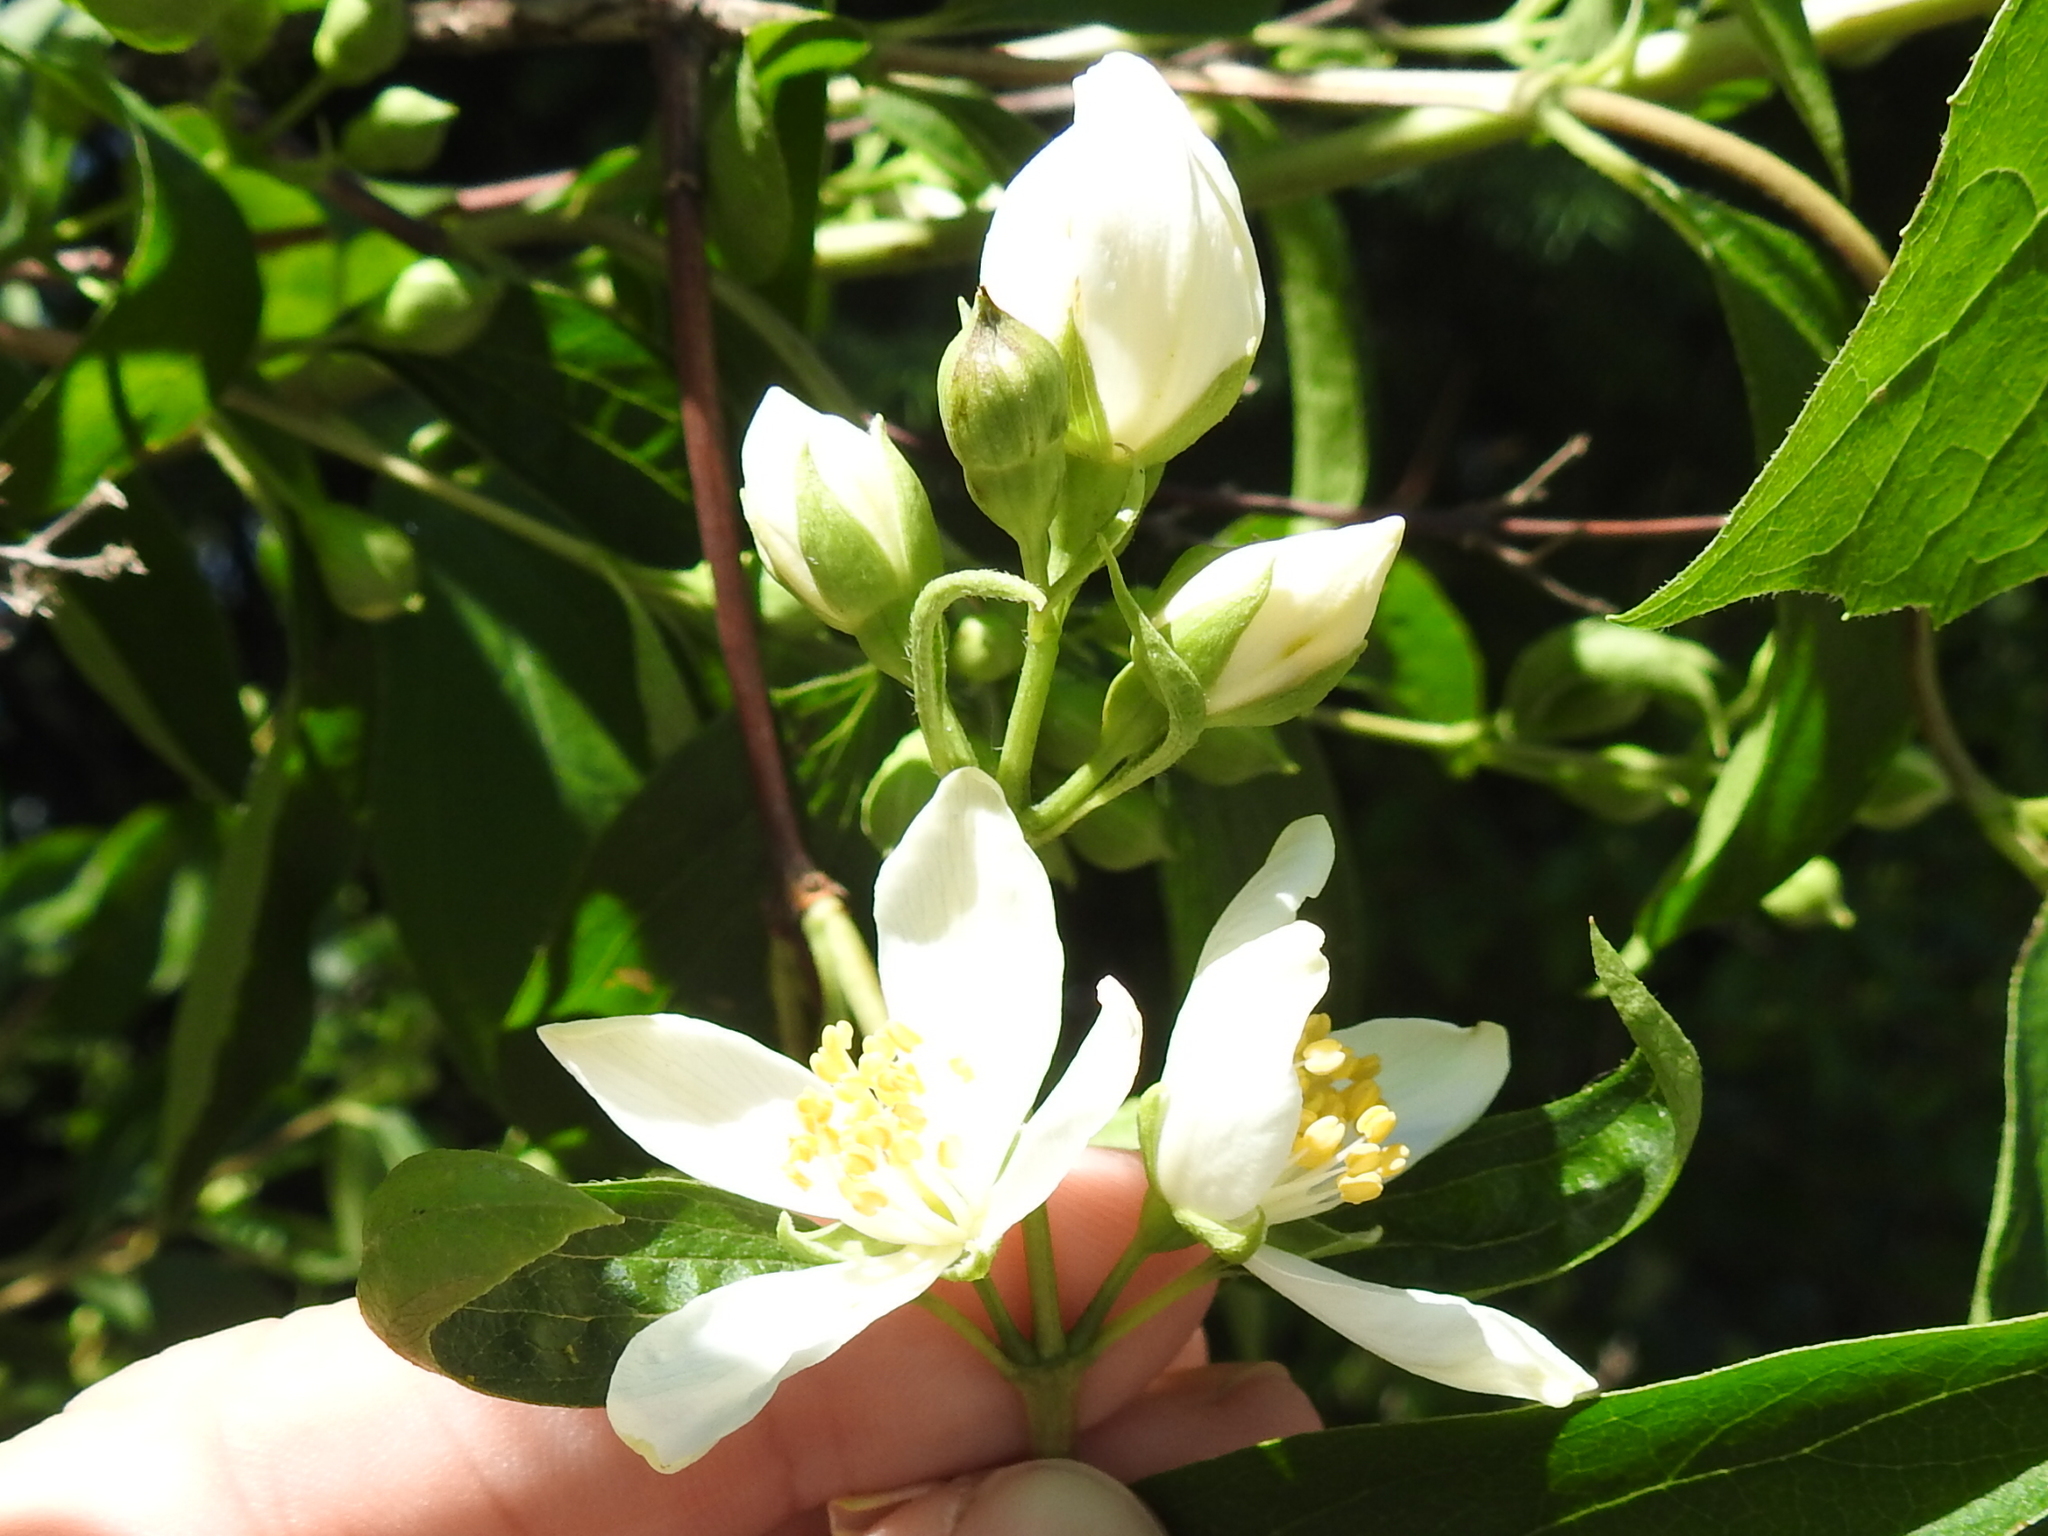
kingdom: Plantae
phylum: Tracheophyta
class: Magnoliopsida
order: Cornales
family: Hydrangeaceae
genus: Philadelphus
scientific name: Philadelphus lewisii
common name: Lewis's mock orange
